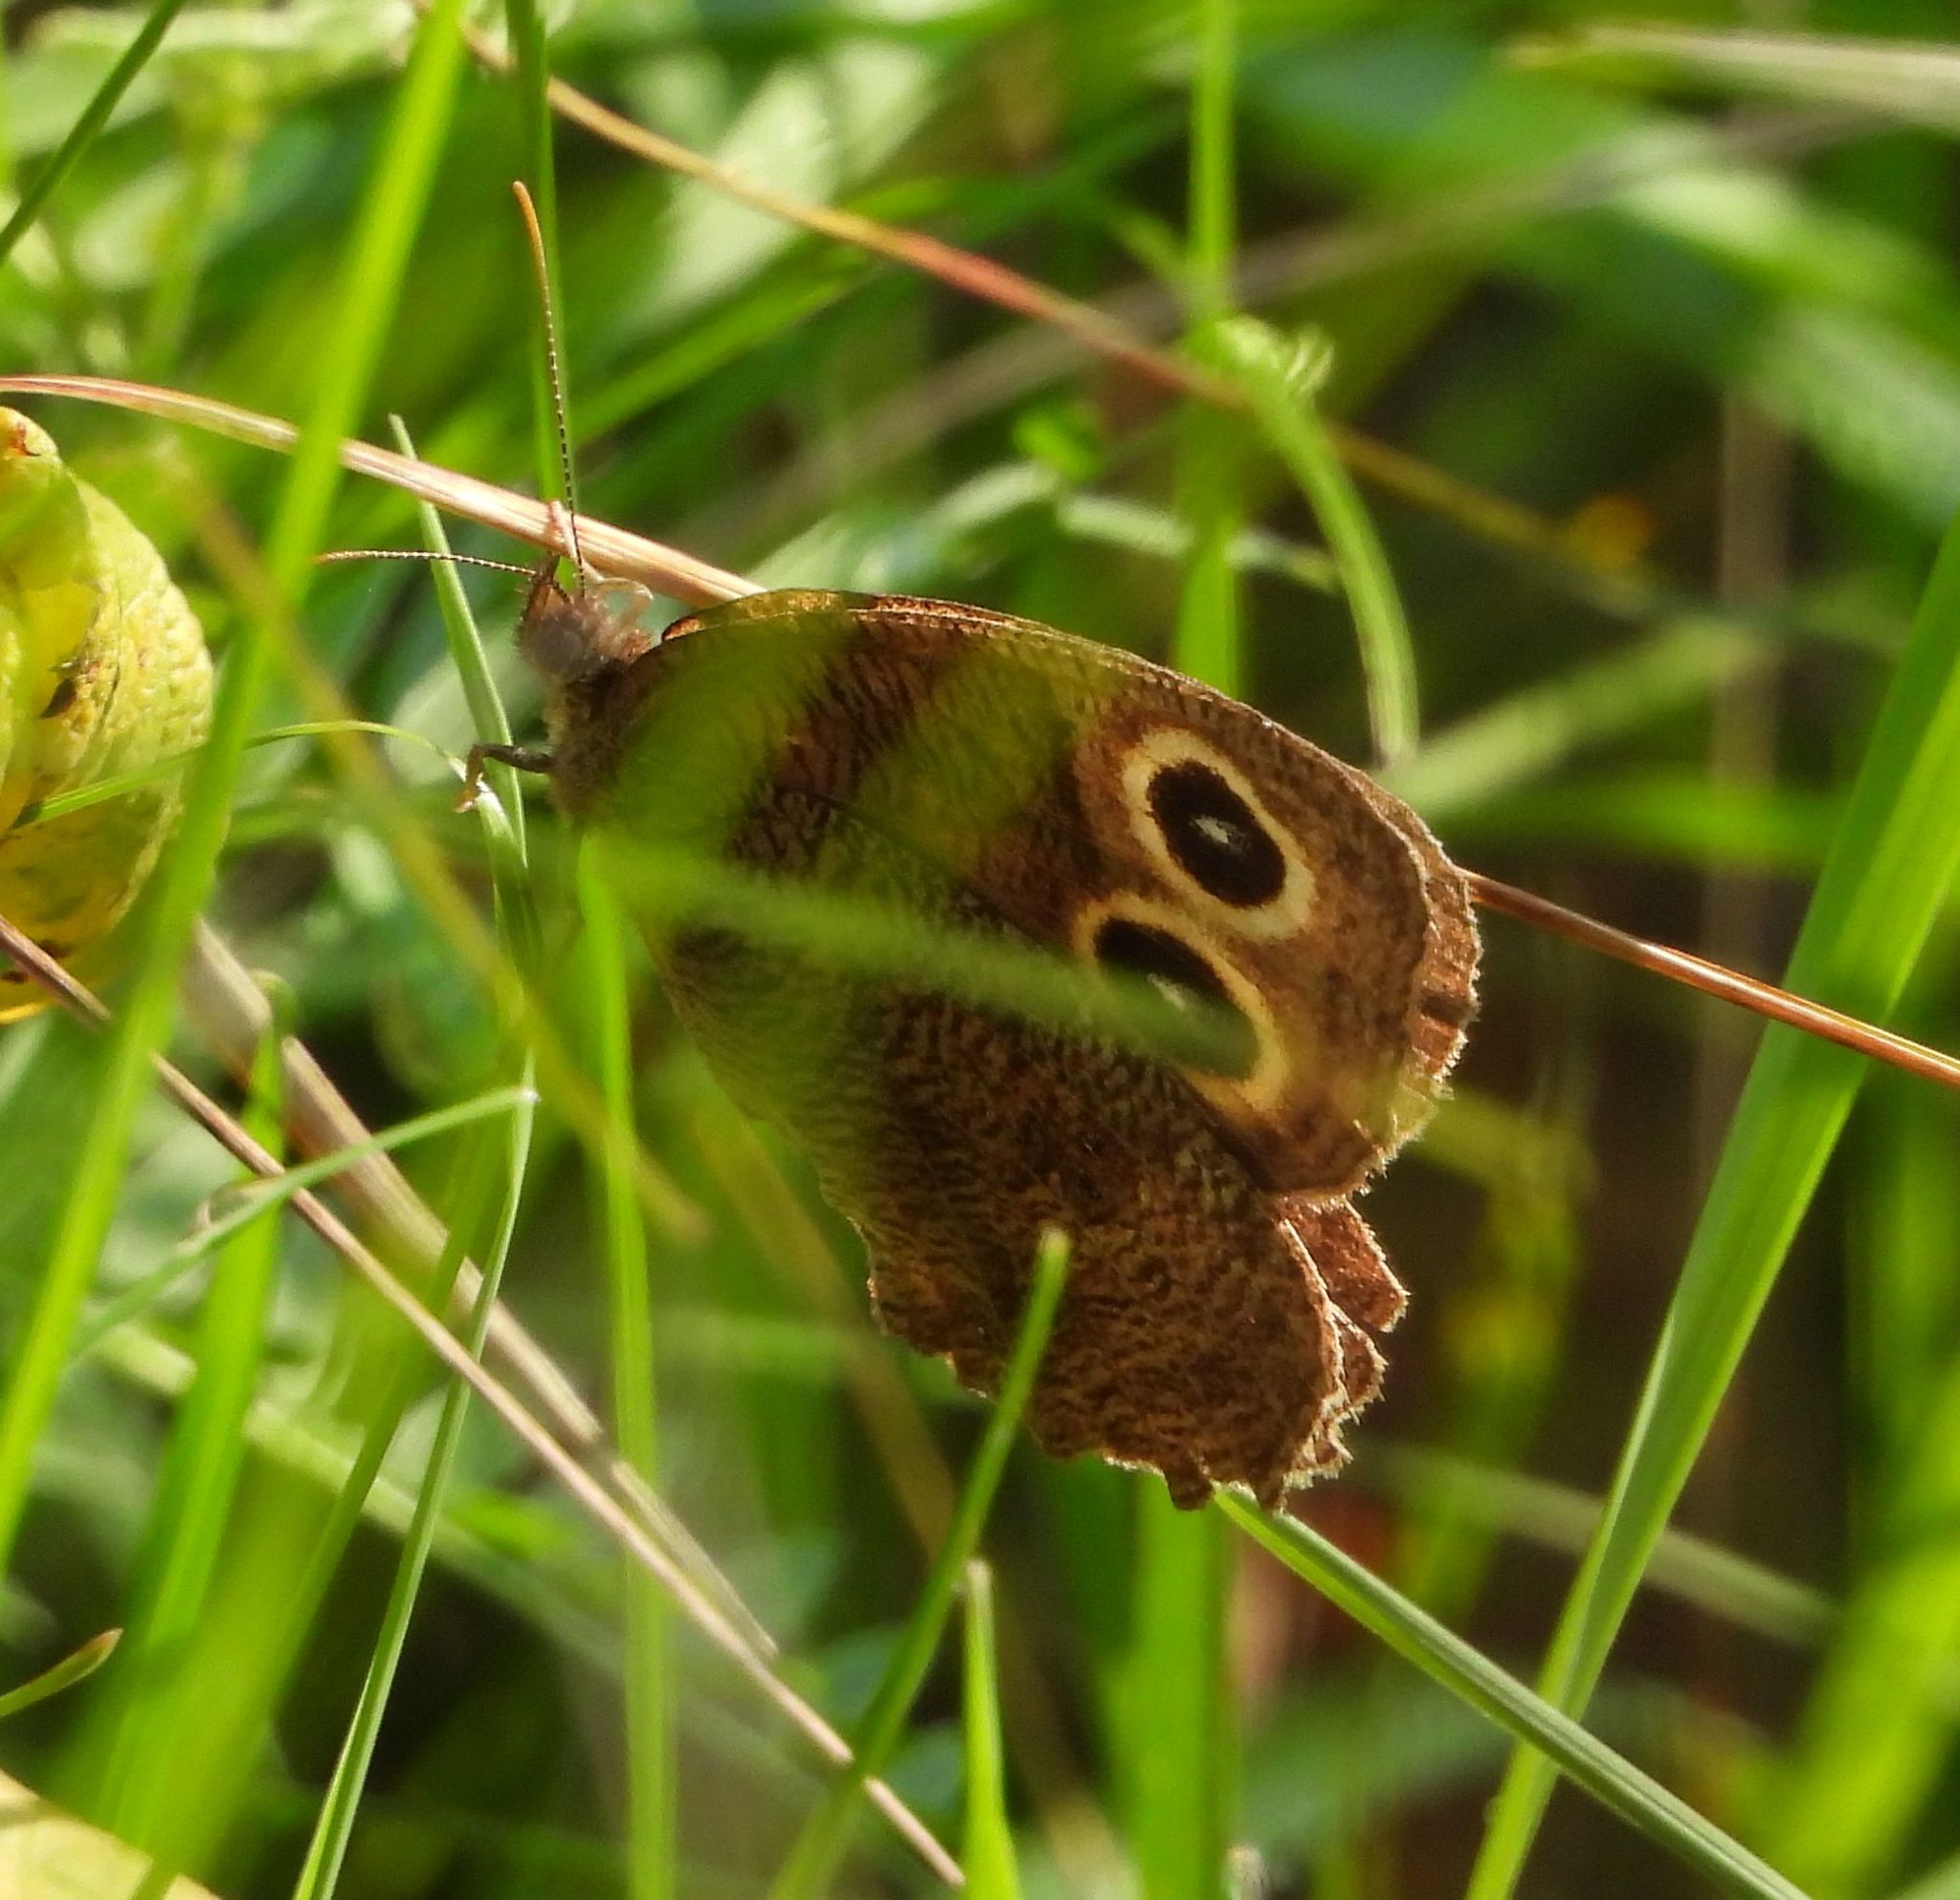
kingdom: Animalia
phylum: Arthropoda
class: Insecta
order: Lepidoptera
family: Nymphalidae
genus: Cercyonis
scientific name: Cercyonis pegala
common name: Common wood-nymph
